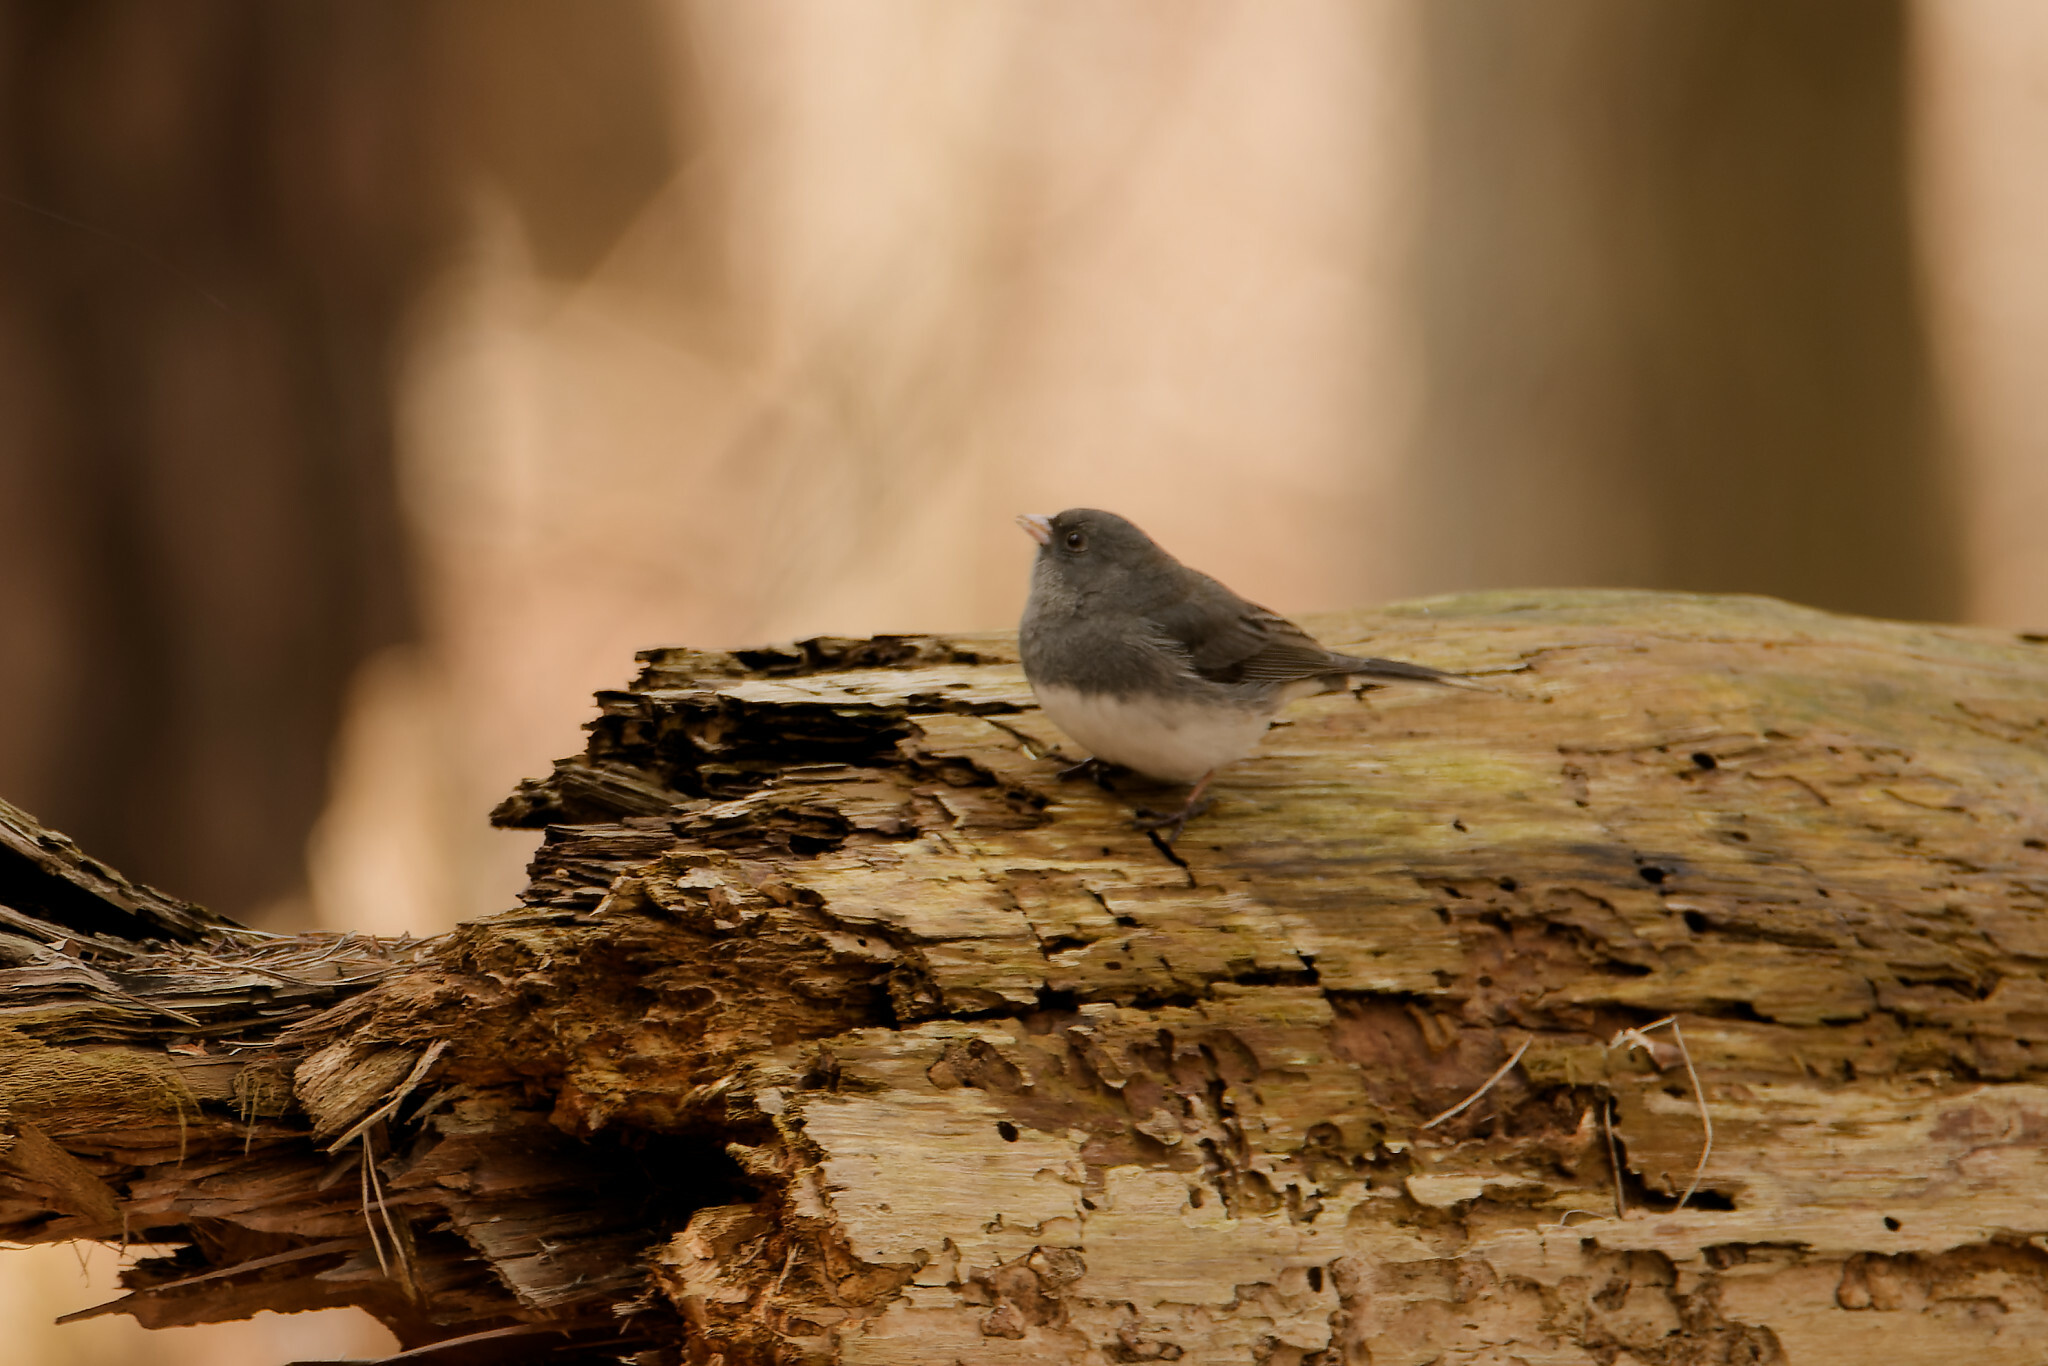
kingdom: Animalia
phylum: Chordata
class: Aves
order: Passeriformes
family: Passerellidae
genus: Junco
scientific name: Junco hyemalis
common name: Dark-eyed junco
